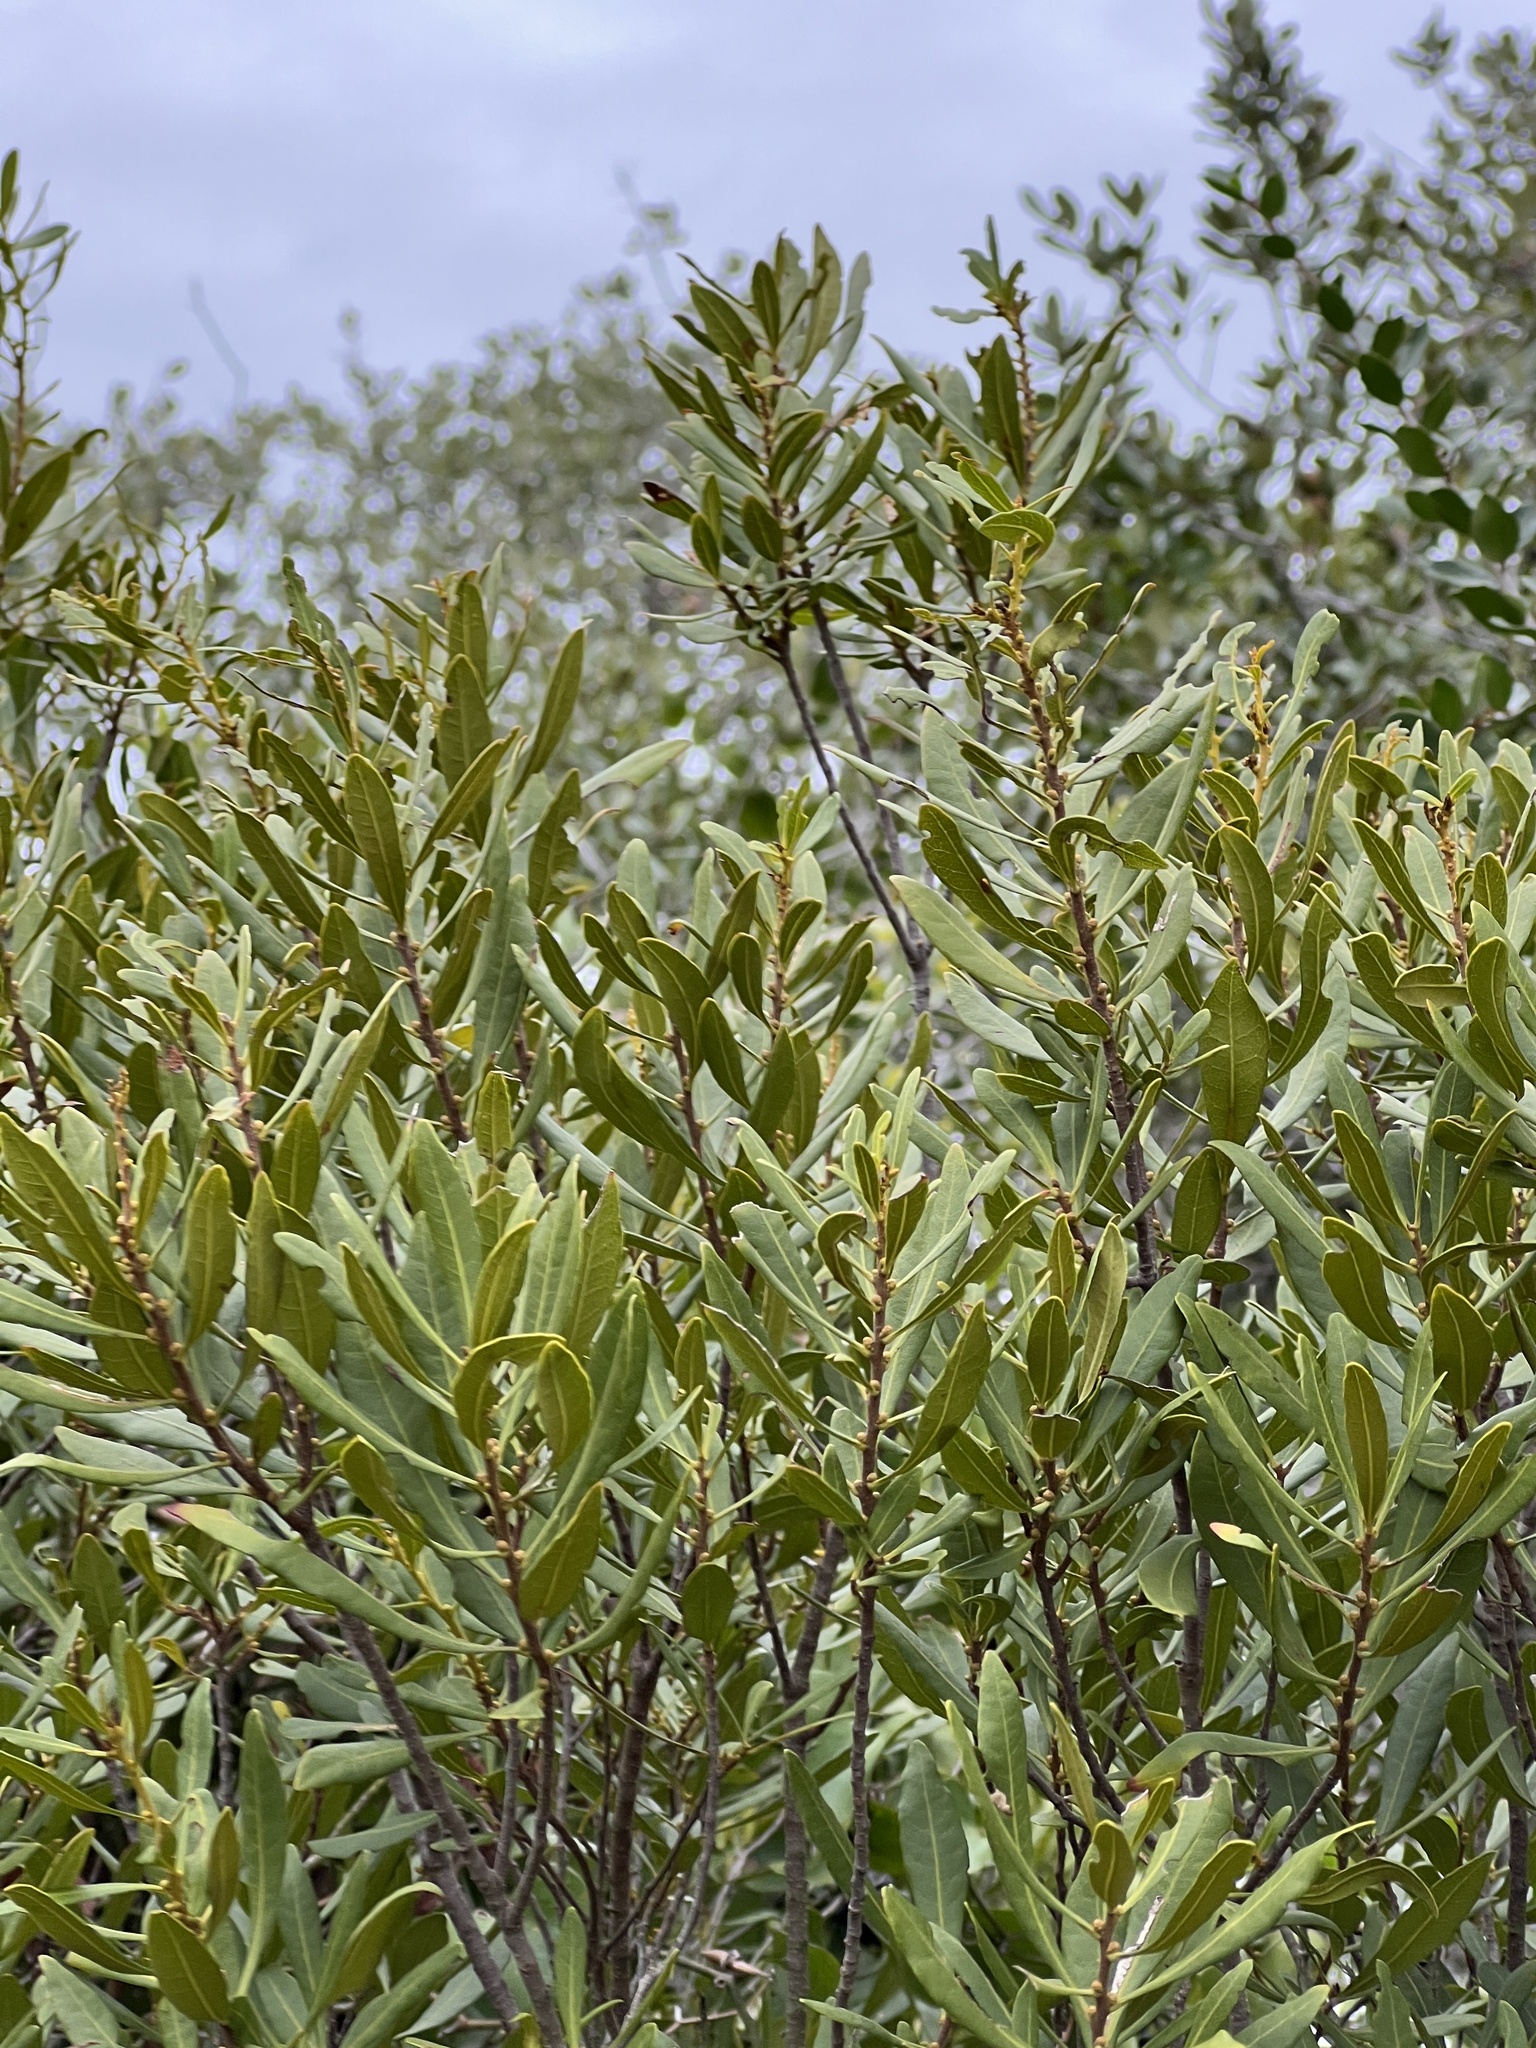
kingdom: Plantae
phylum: Tracheophyta
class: Magnoliopsida
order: Fagales
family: Myricaceae
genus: Morella
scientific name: Morella cerifera
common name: Wax myrtle
